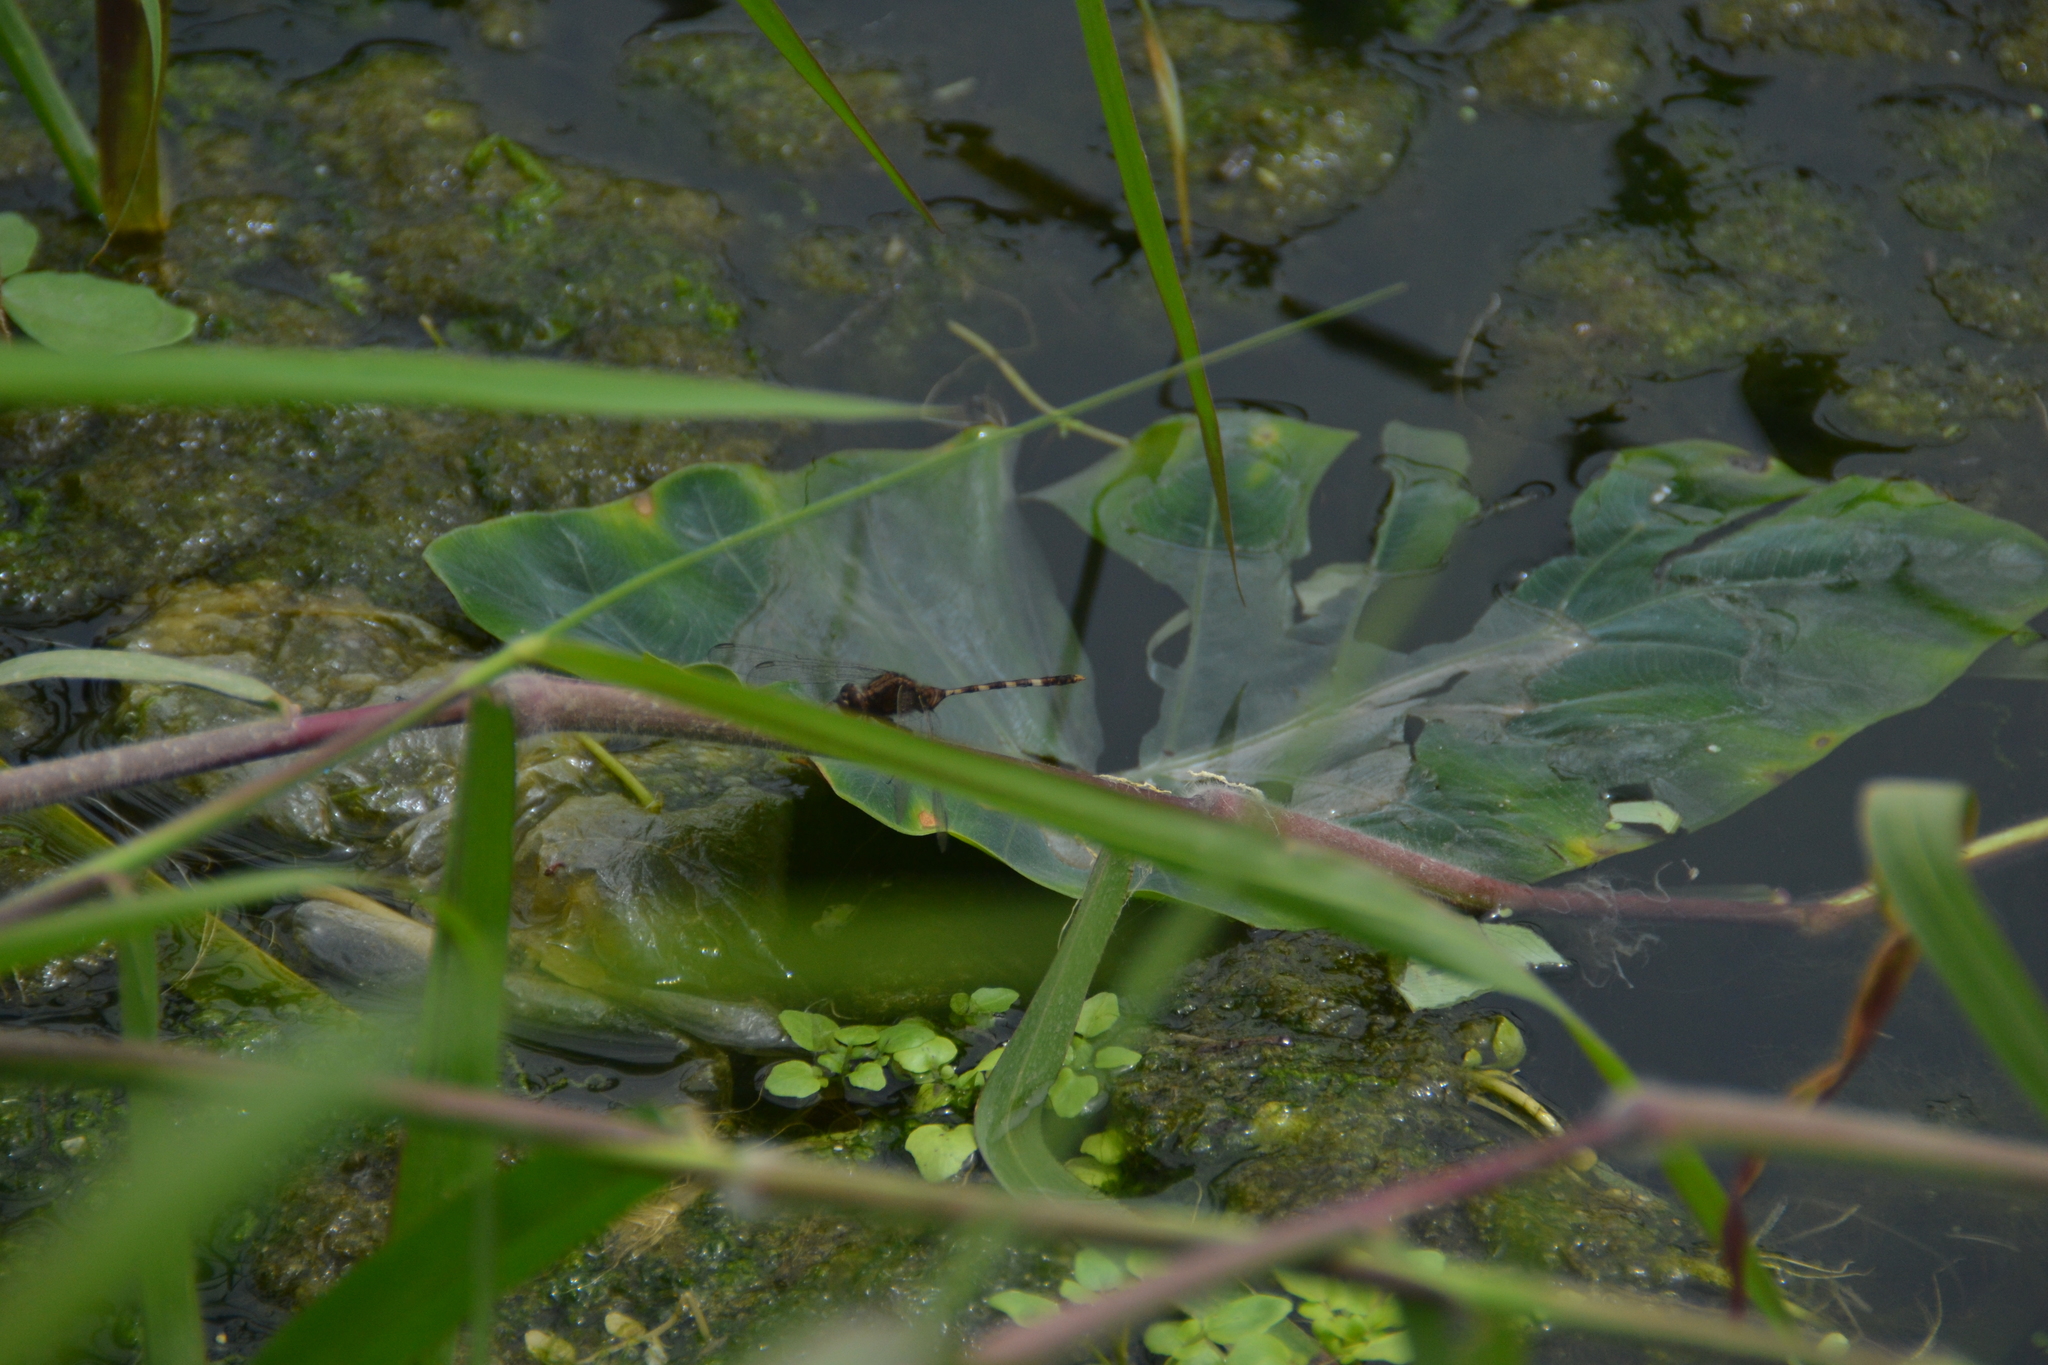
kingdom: Animalia
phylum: Arthropoda
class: Insecta
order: Odonata
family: Libellulidae
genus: Erythemis
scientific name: Erythemis plebeja
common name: Pin-tailed pondhawk
